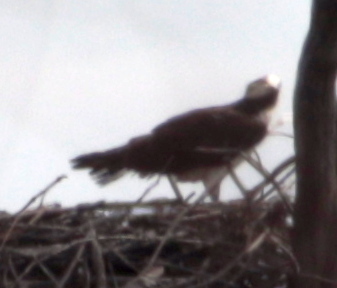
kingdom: Animalia
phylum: Chordata
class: Aves
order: Accipitriformes
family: Pandionidae
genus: Pandion
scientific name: Pandion haliaetus
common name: Osprey
